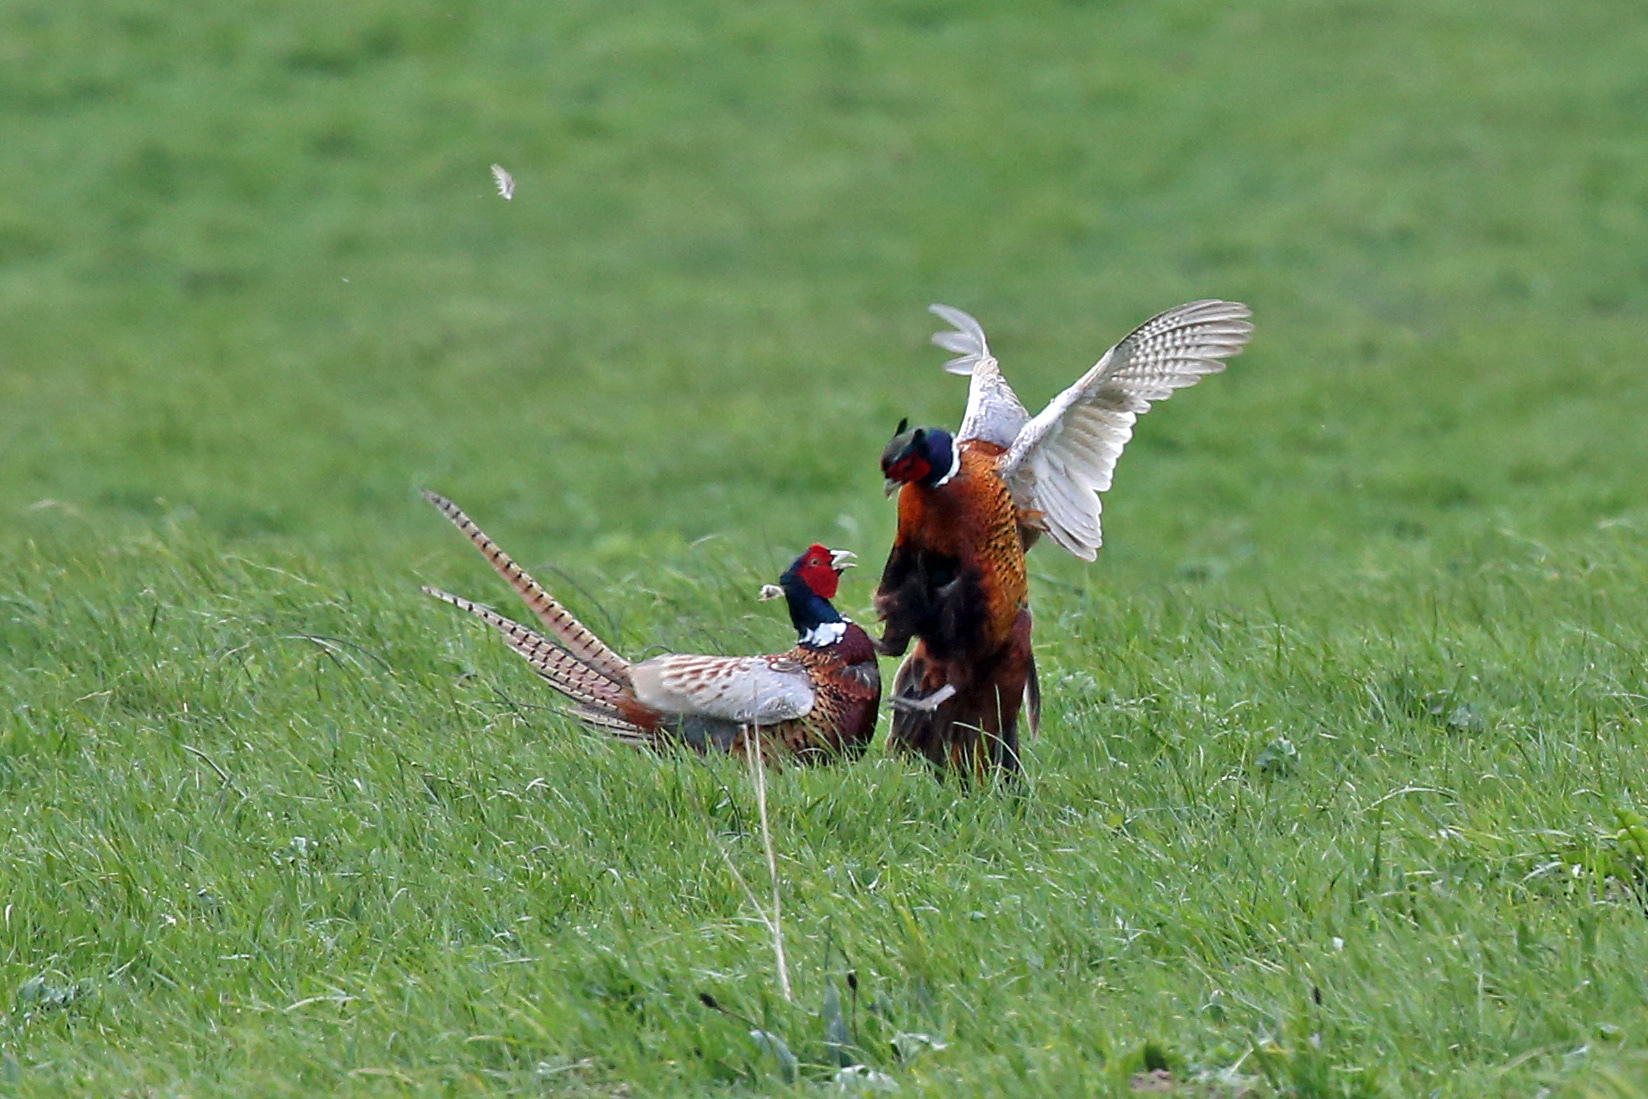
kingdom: Animalia
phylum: Chordata
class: Aves
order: Galliformes
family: Phasianidae
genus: Phasianus
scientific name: Phasianus colchicus
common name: Common pheasant
